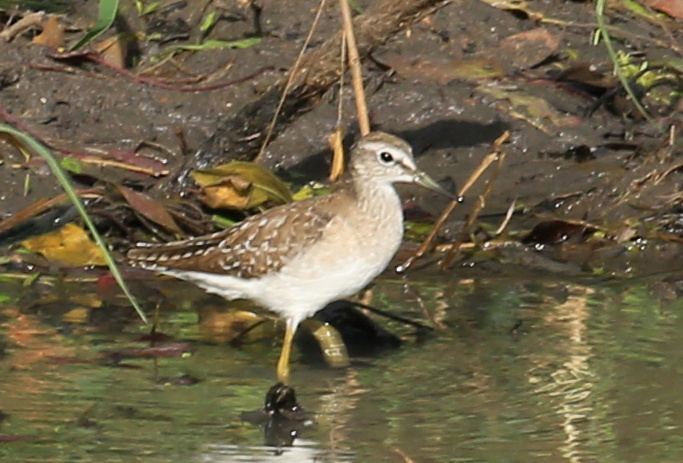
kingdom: Animalia
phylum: Chordata
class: Aves
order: Charadriiformes
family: Scolopacidae
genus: Tringa
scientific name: Tringa glareola
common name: Wood sandpiper
